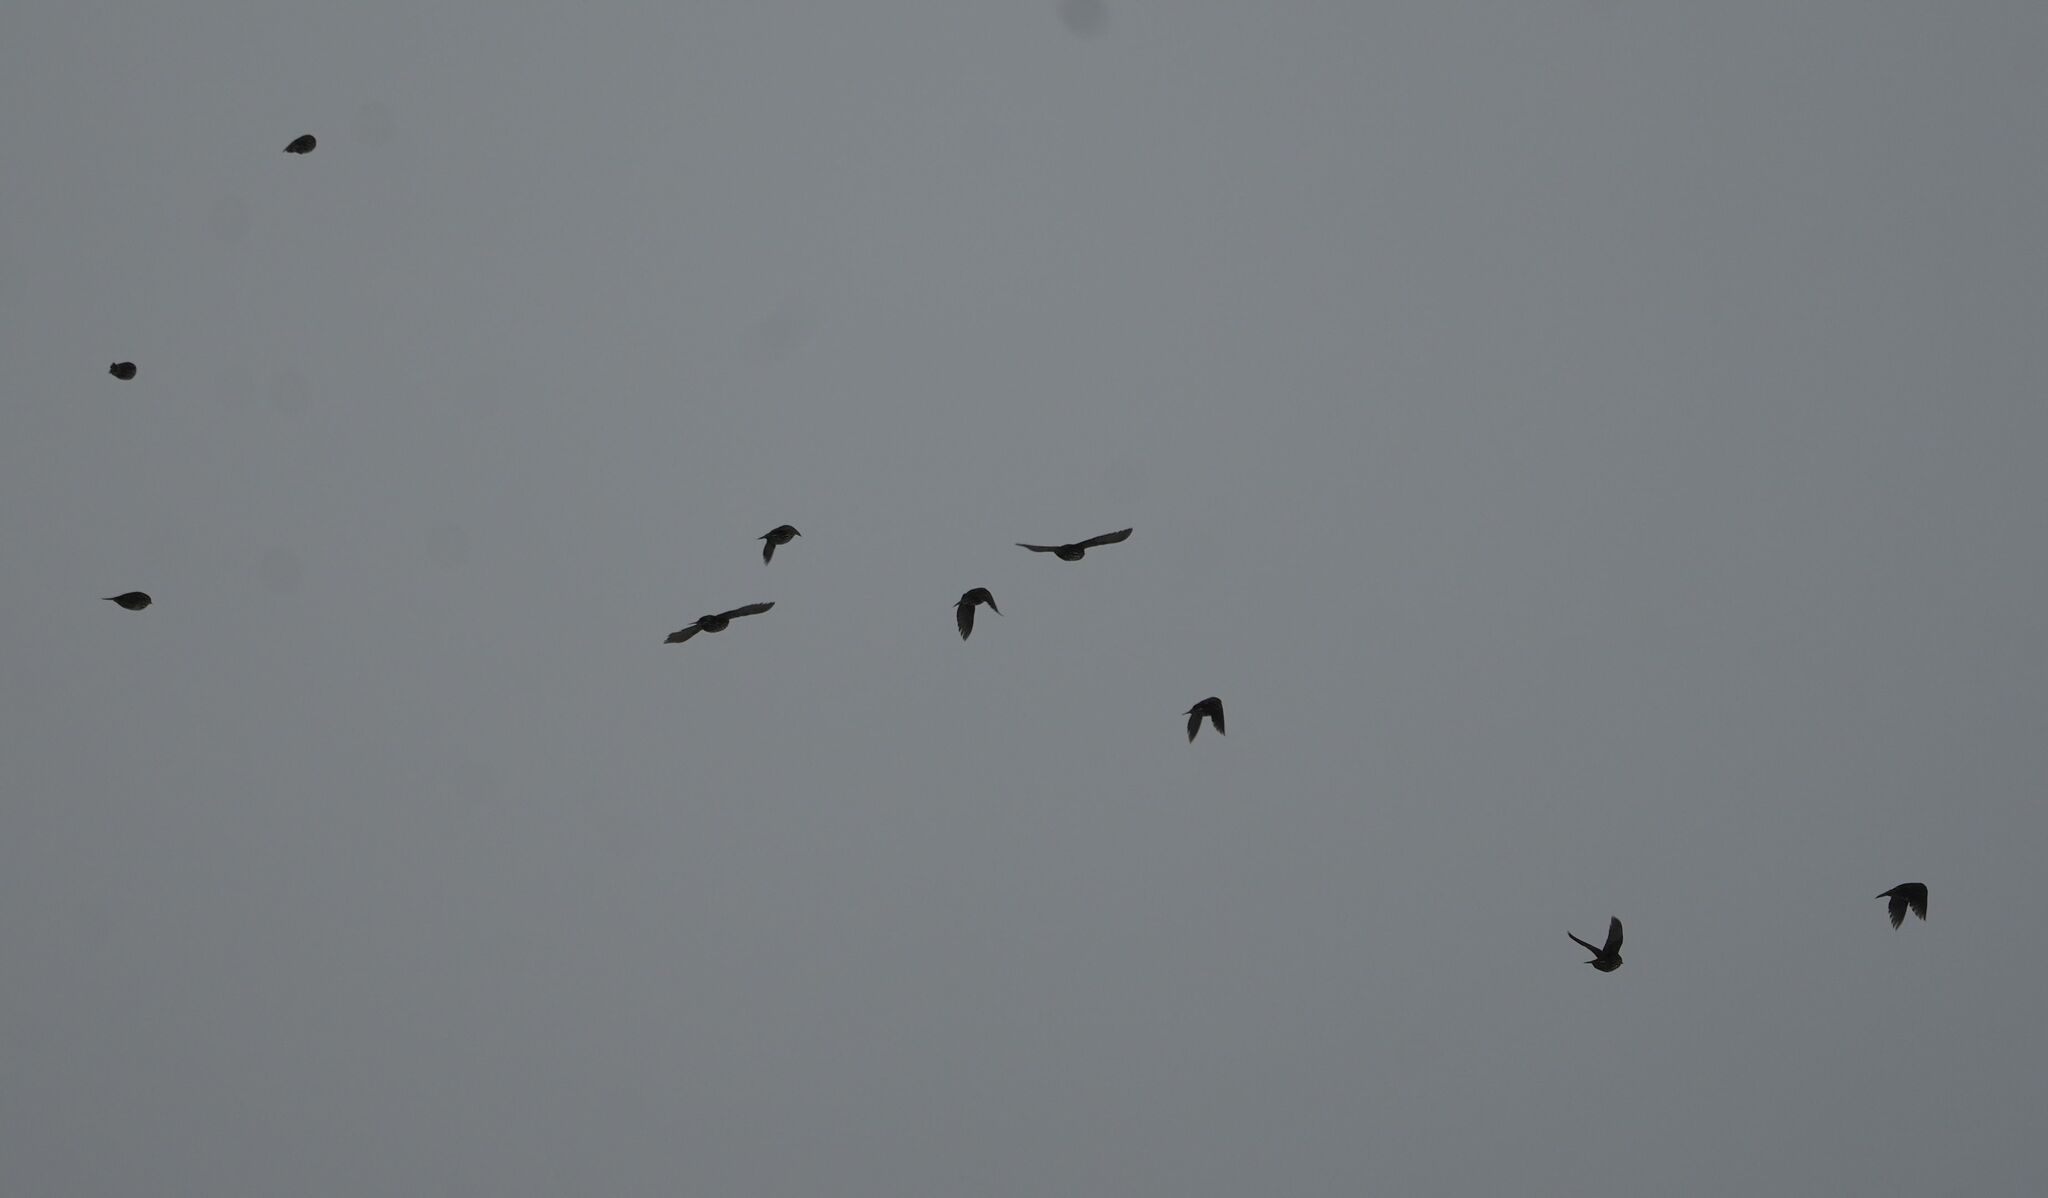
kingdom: Animalia
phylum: Chordata
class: Aves
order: Passeriformes
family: Icteridae
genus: Agelaius
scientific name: Agelaius phoeniceus
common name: Red-winged blackbird
